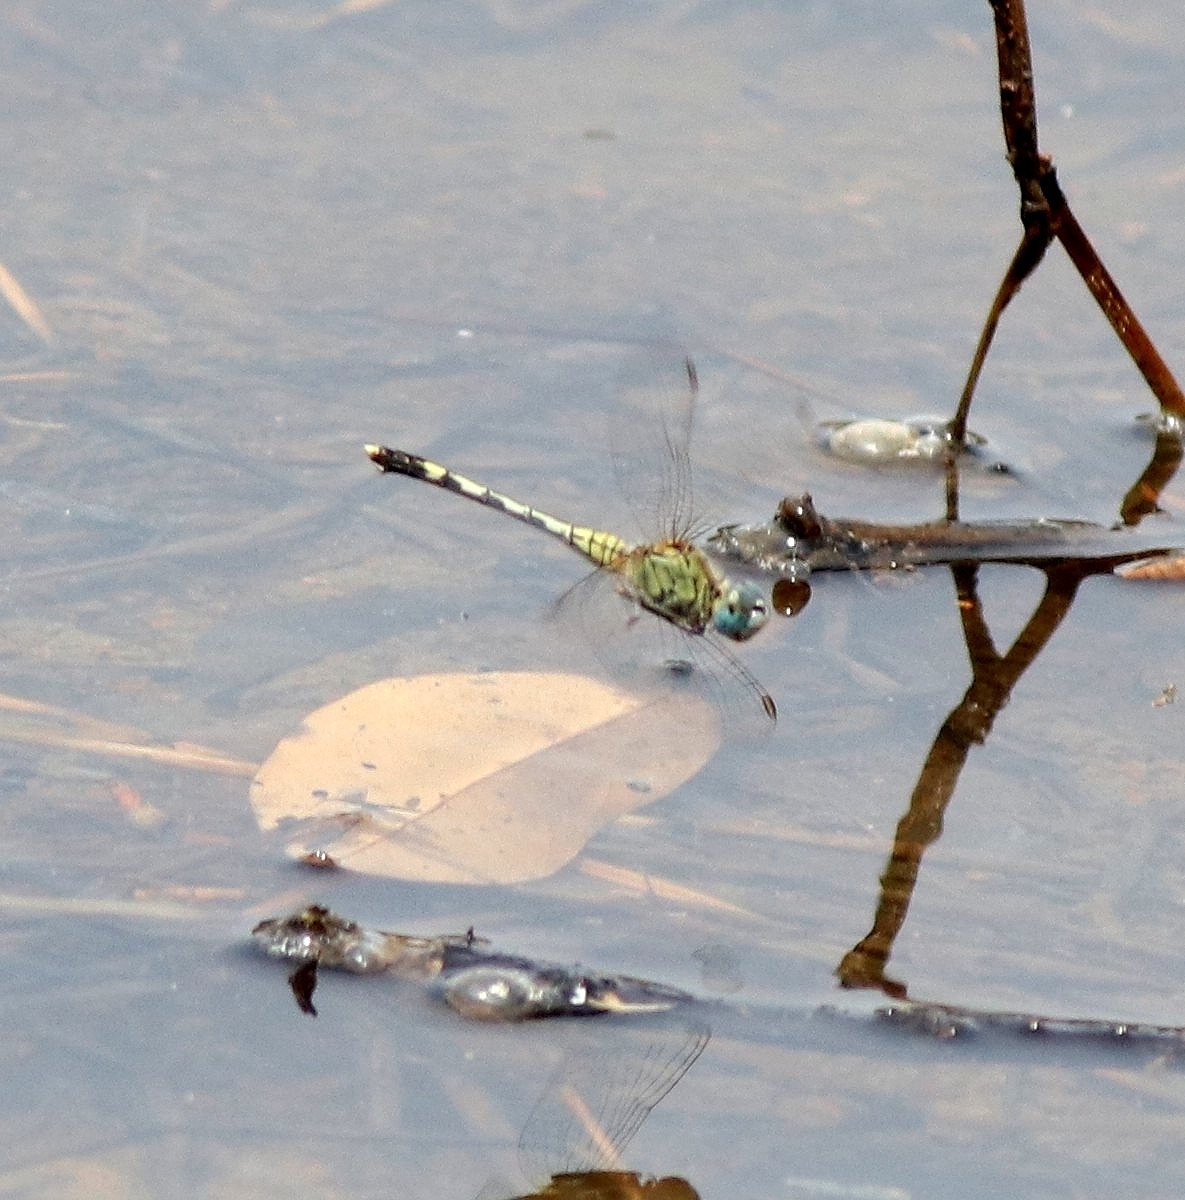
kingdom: Animalia
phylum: Arthropoda
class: Insecta
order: Odonata
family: Libellulidae
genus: Diplacodes
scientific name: Diplacodes trivialis
